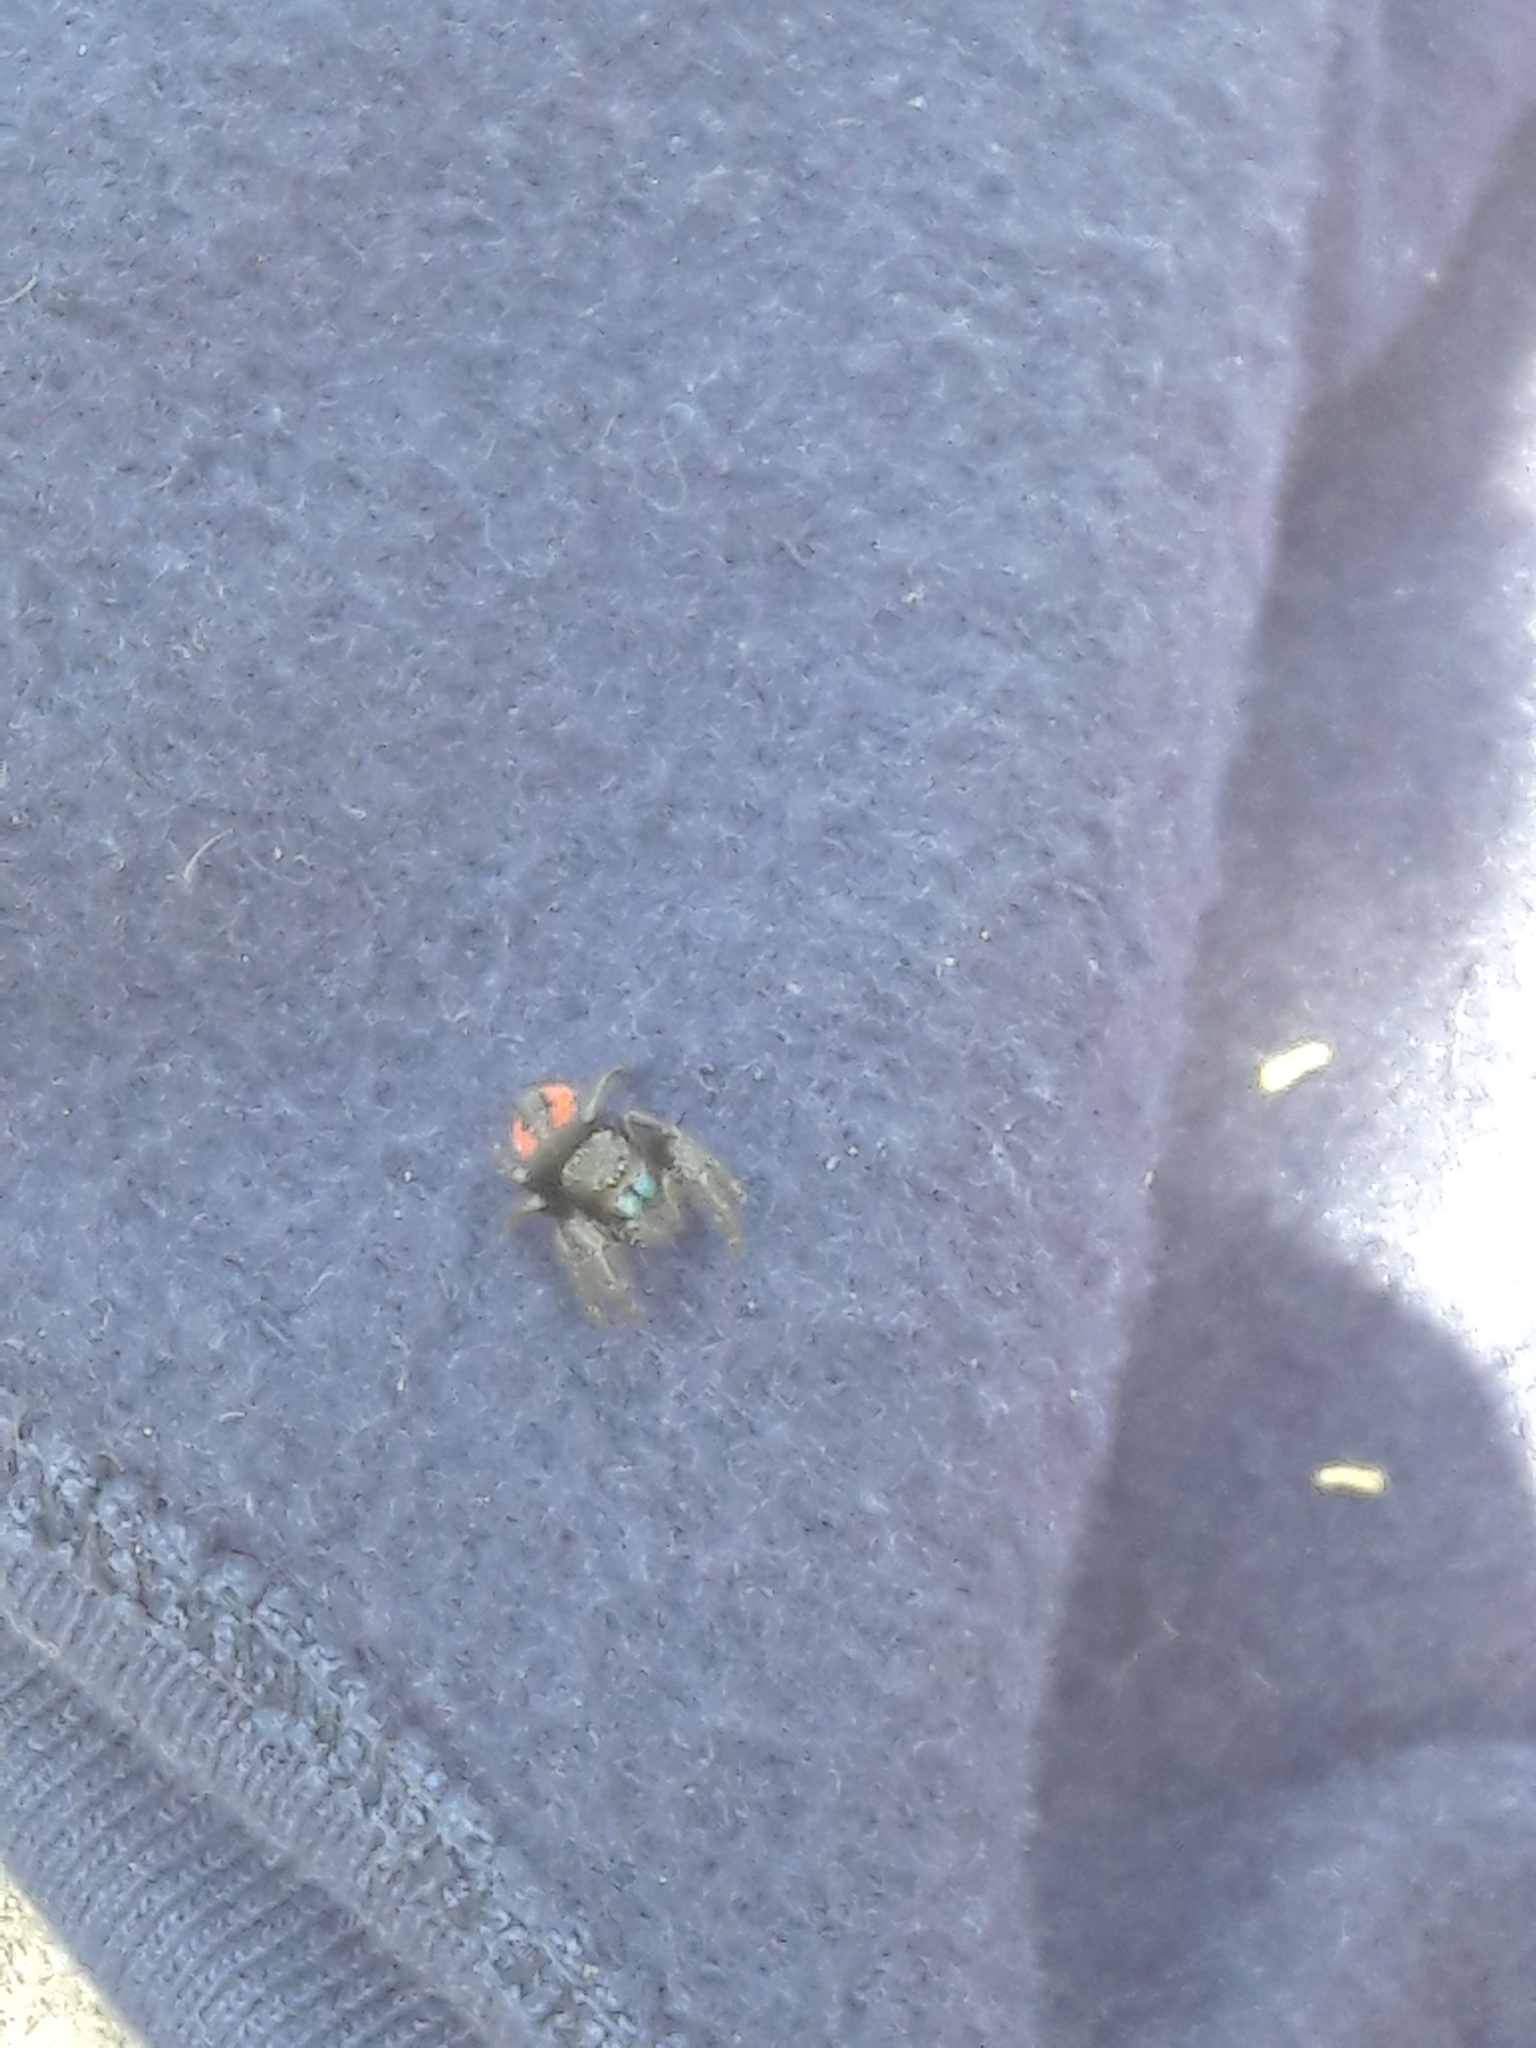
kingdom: Animalia
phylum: Arthropoda
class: Arachnida
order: Araneae
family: Salticidae
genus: Phidippus
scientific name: Phidippus johnsoni
